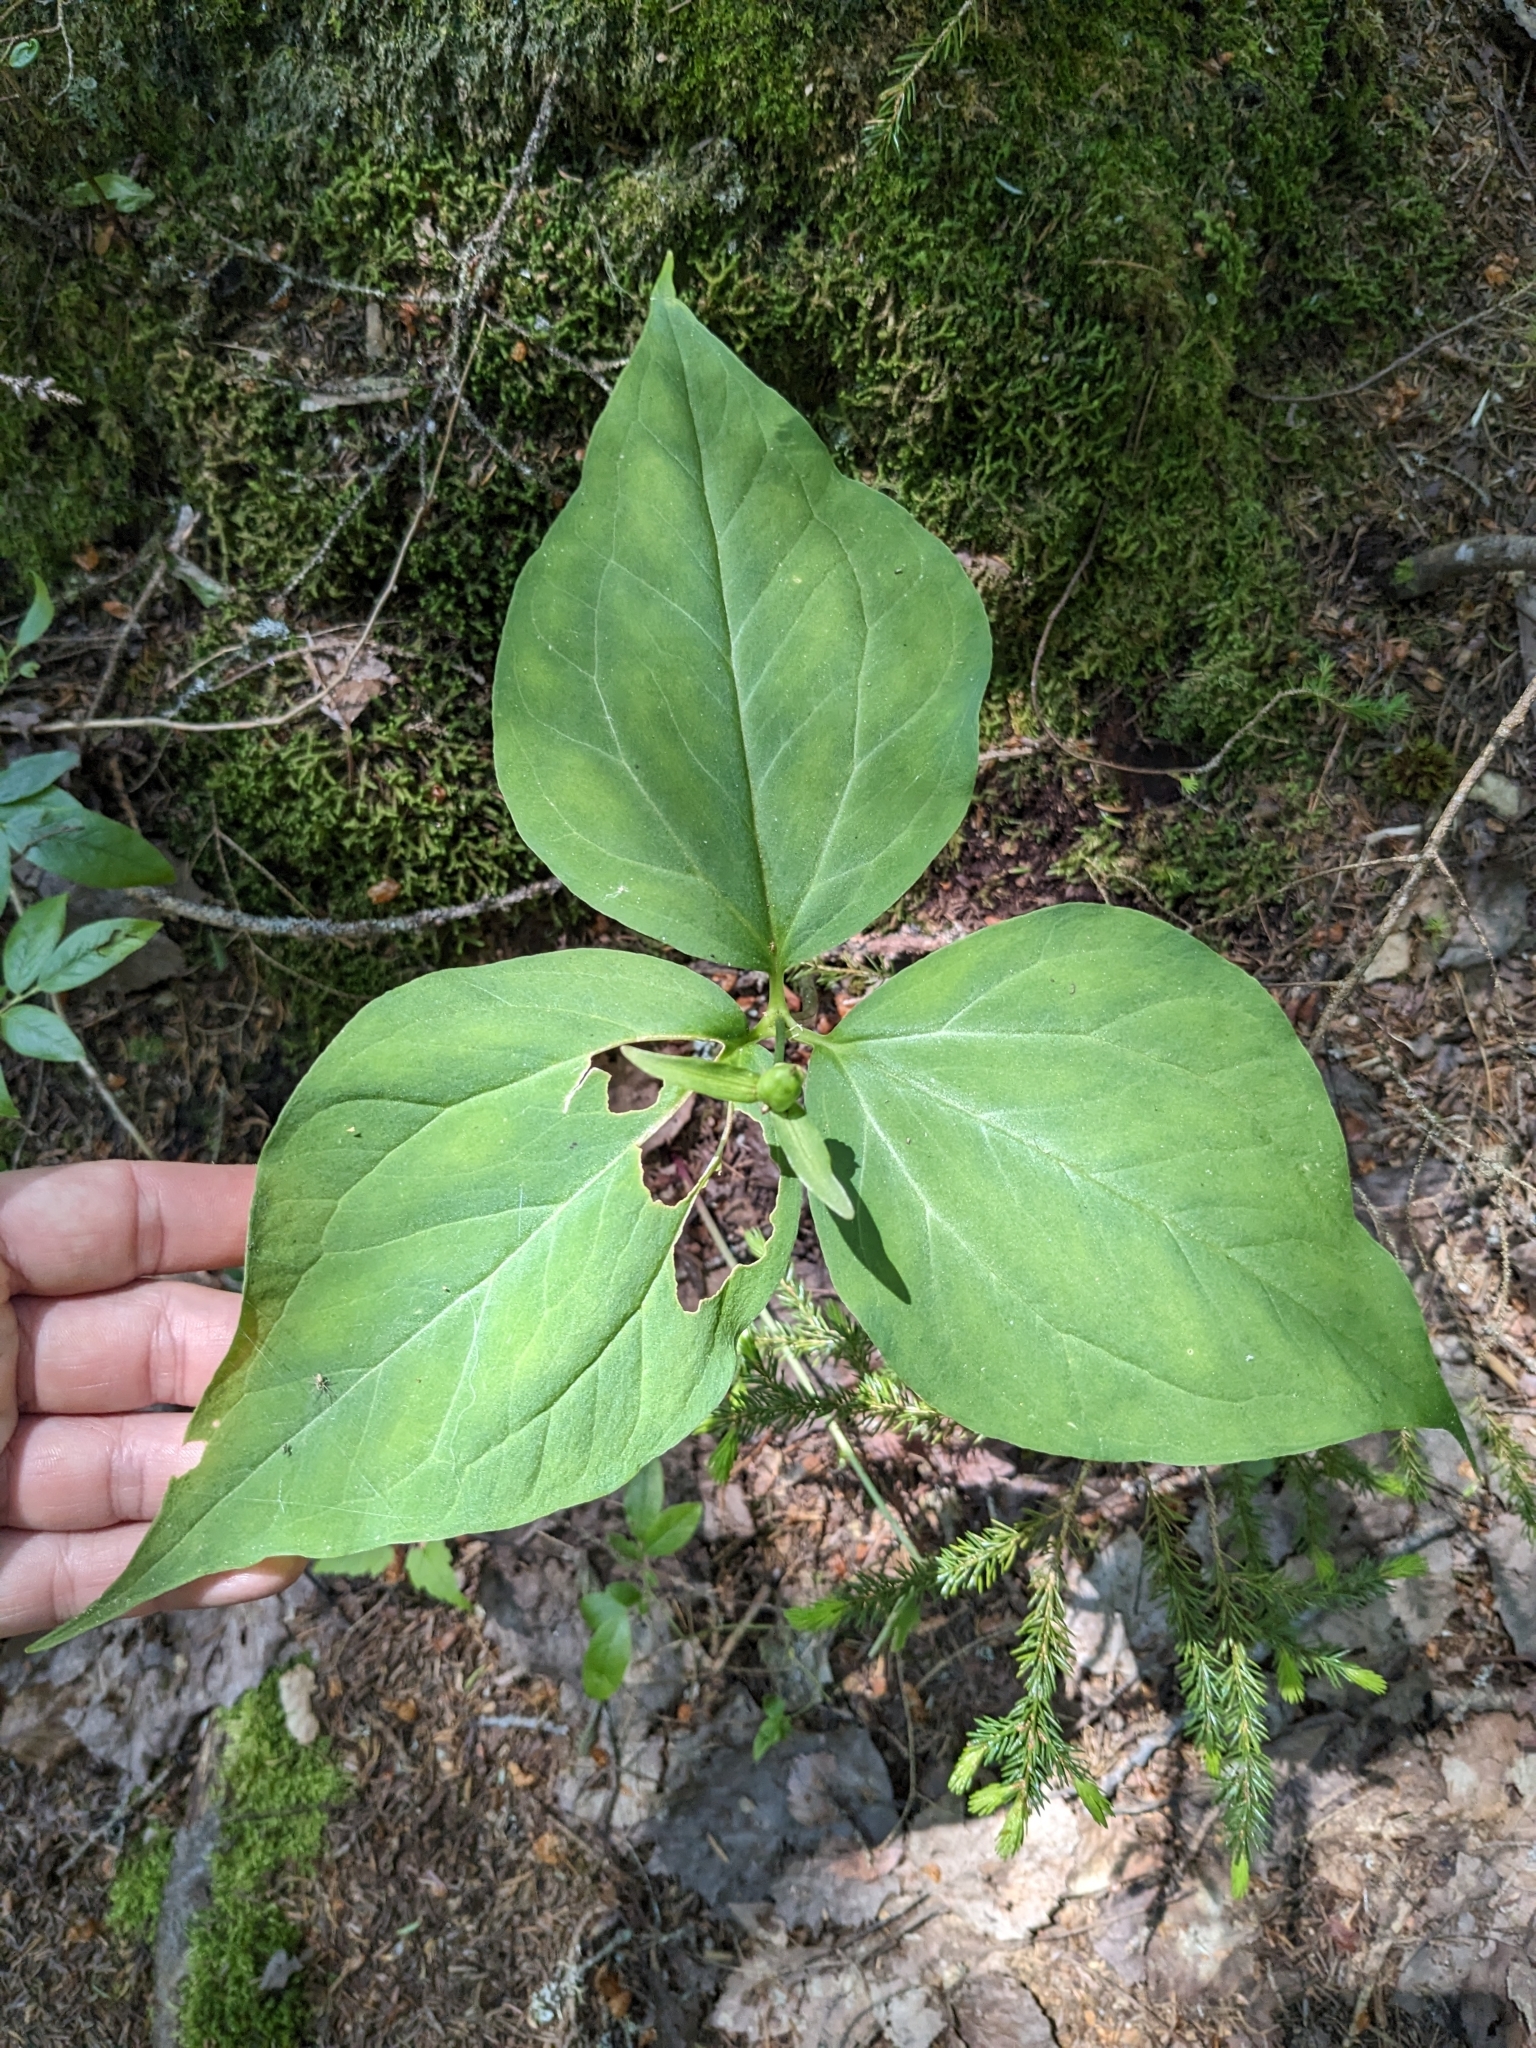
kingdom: Plantae
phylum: Tracheophyta
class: Liliopsida
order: Liliales
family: Melanthiaceae
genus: Trillium
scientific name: Trillium undulatum
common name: Paint trillium
